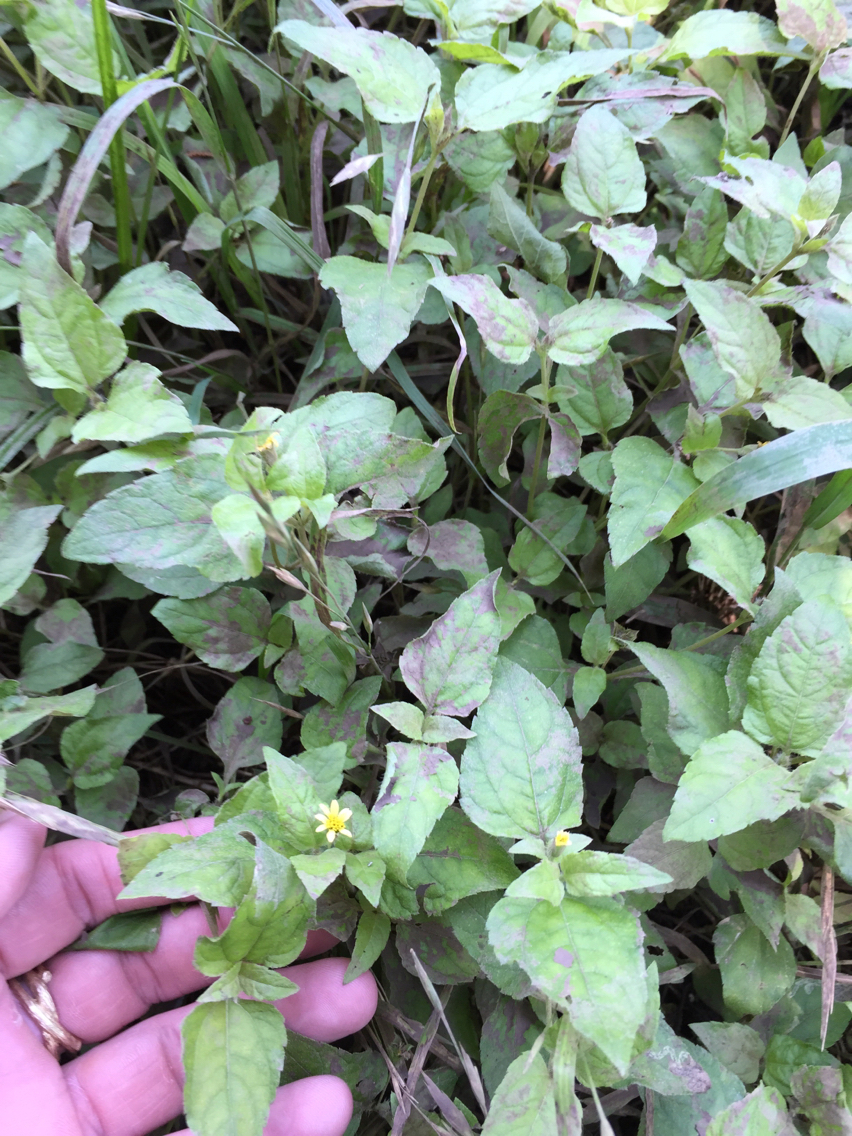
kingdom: Plantae
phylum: Tracheophyta
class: Magnoliopsida
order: Asterales
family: Asteraceae
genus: Calyptocarpus
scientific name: Calyptocarpus vialis
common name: Straggler daisy
